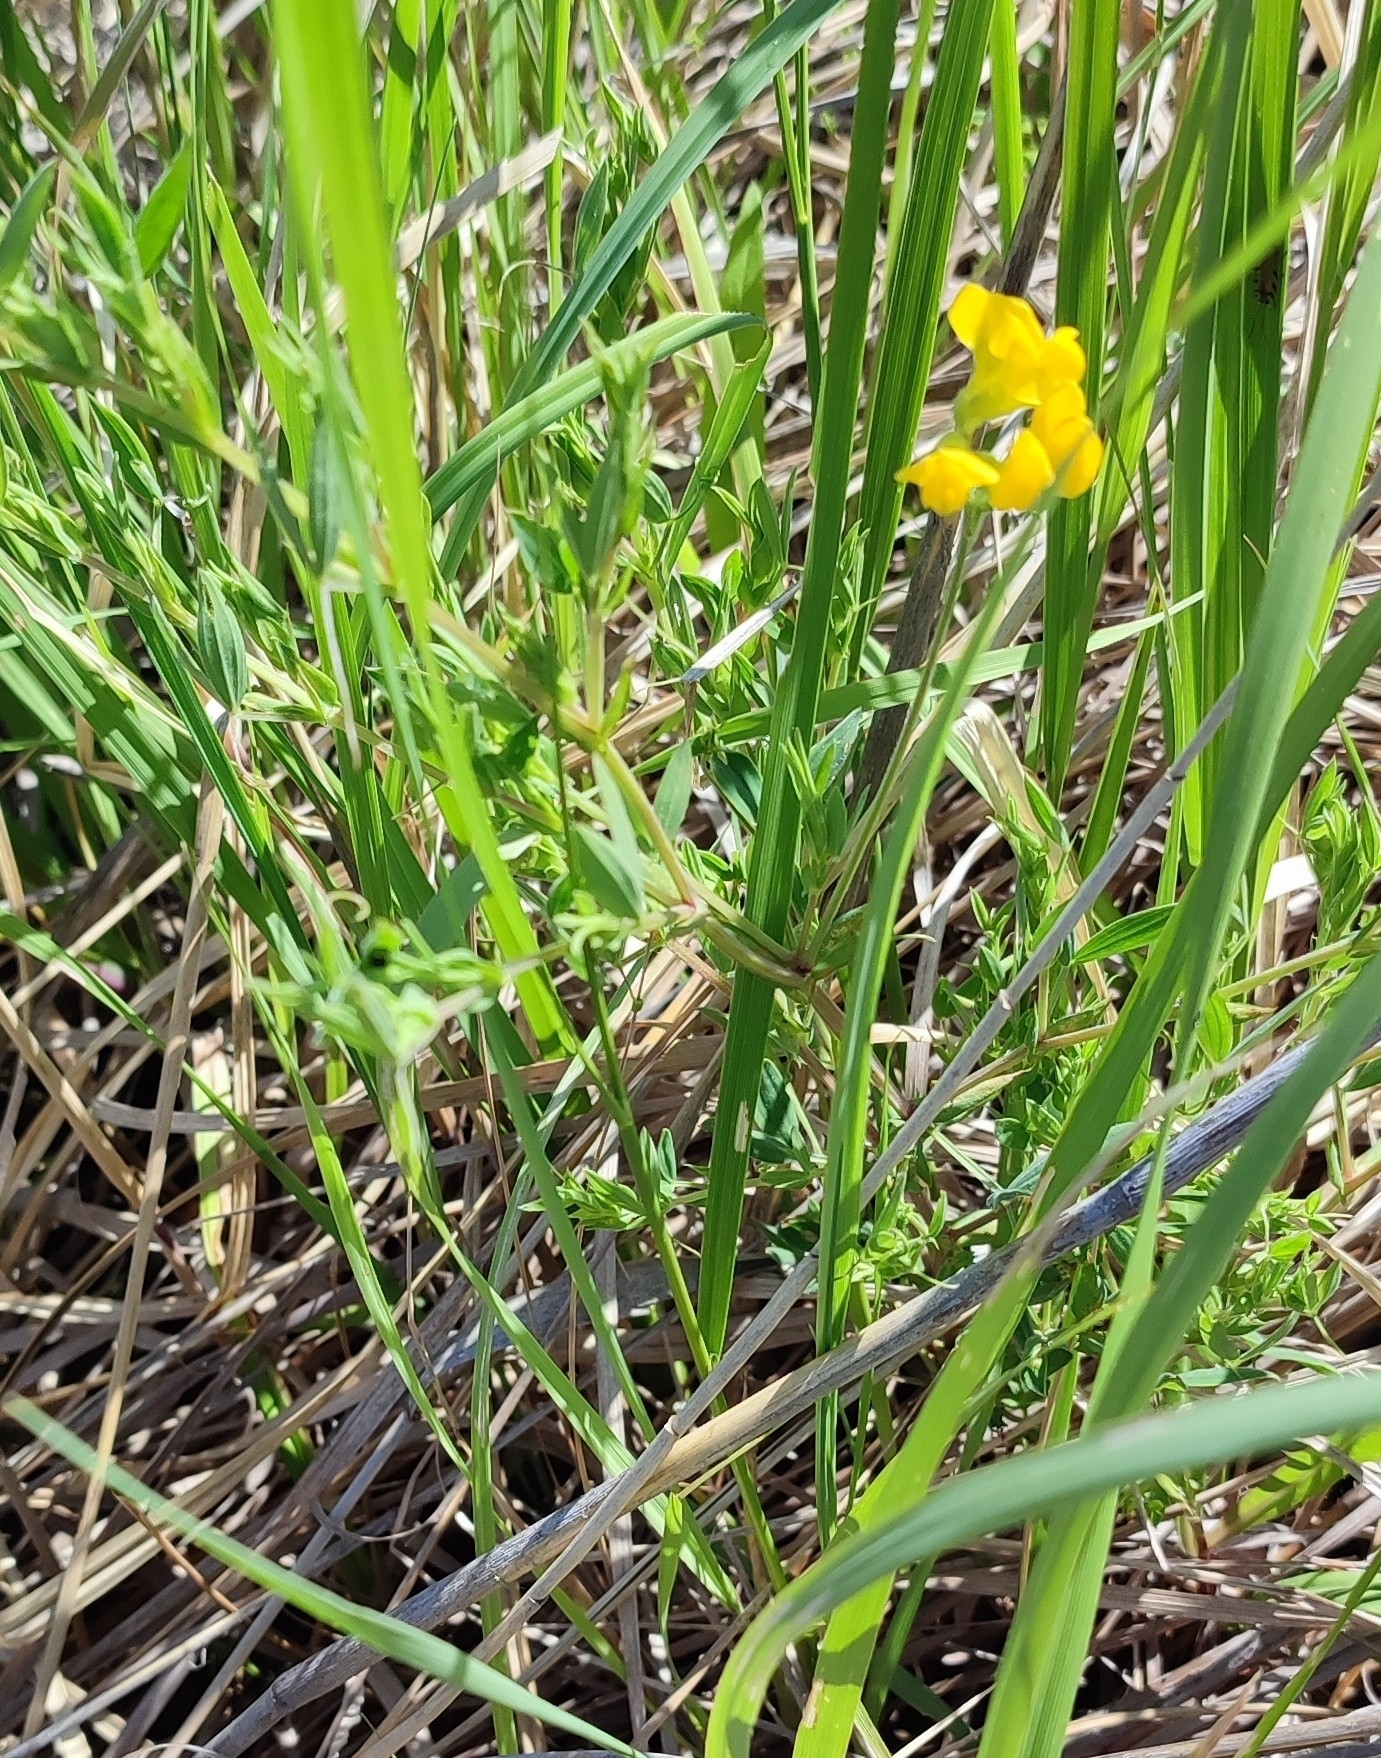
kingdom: Plantae
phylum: Tracheophyta
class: Magnoliopsida
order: Fabales
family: Fabaceae
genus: Lathyrus
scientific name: Lathyrus pratensis
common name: Meadow vetchling
